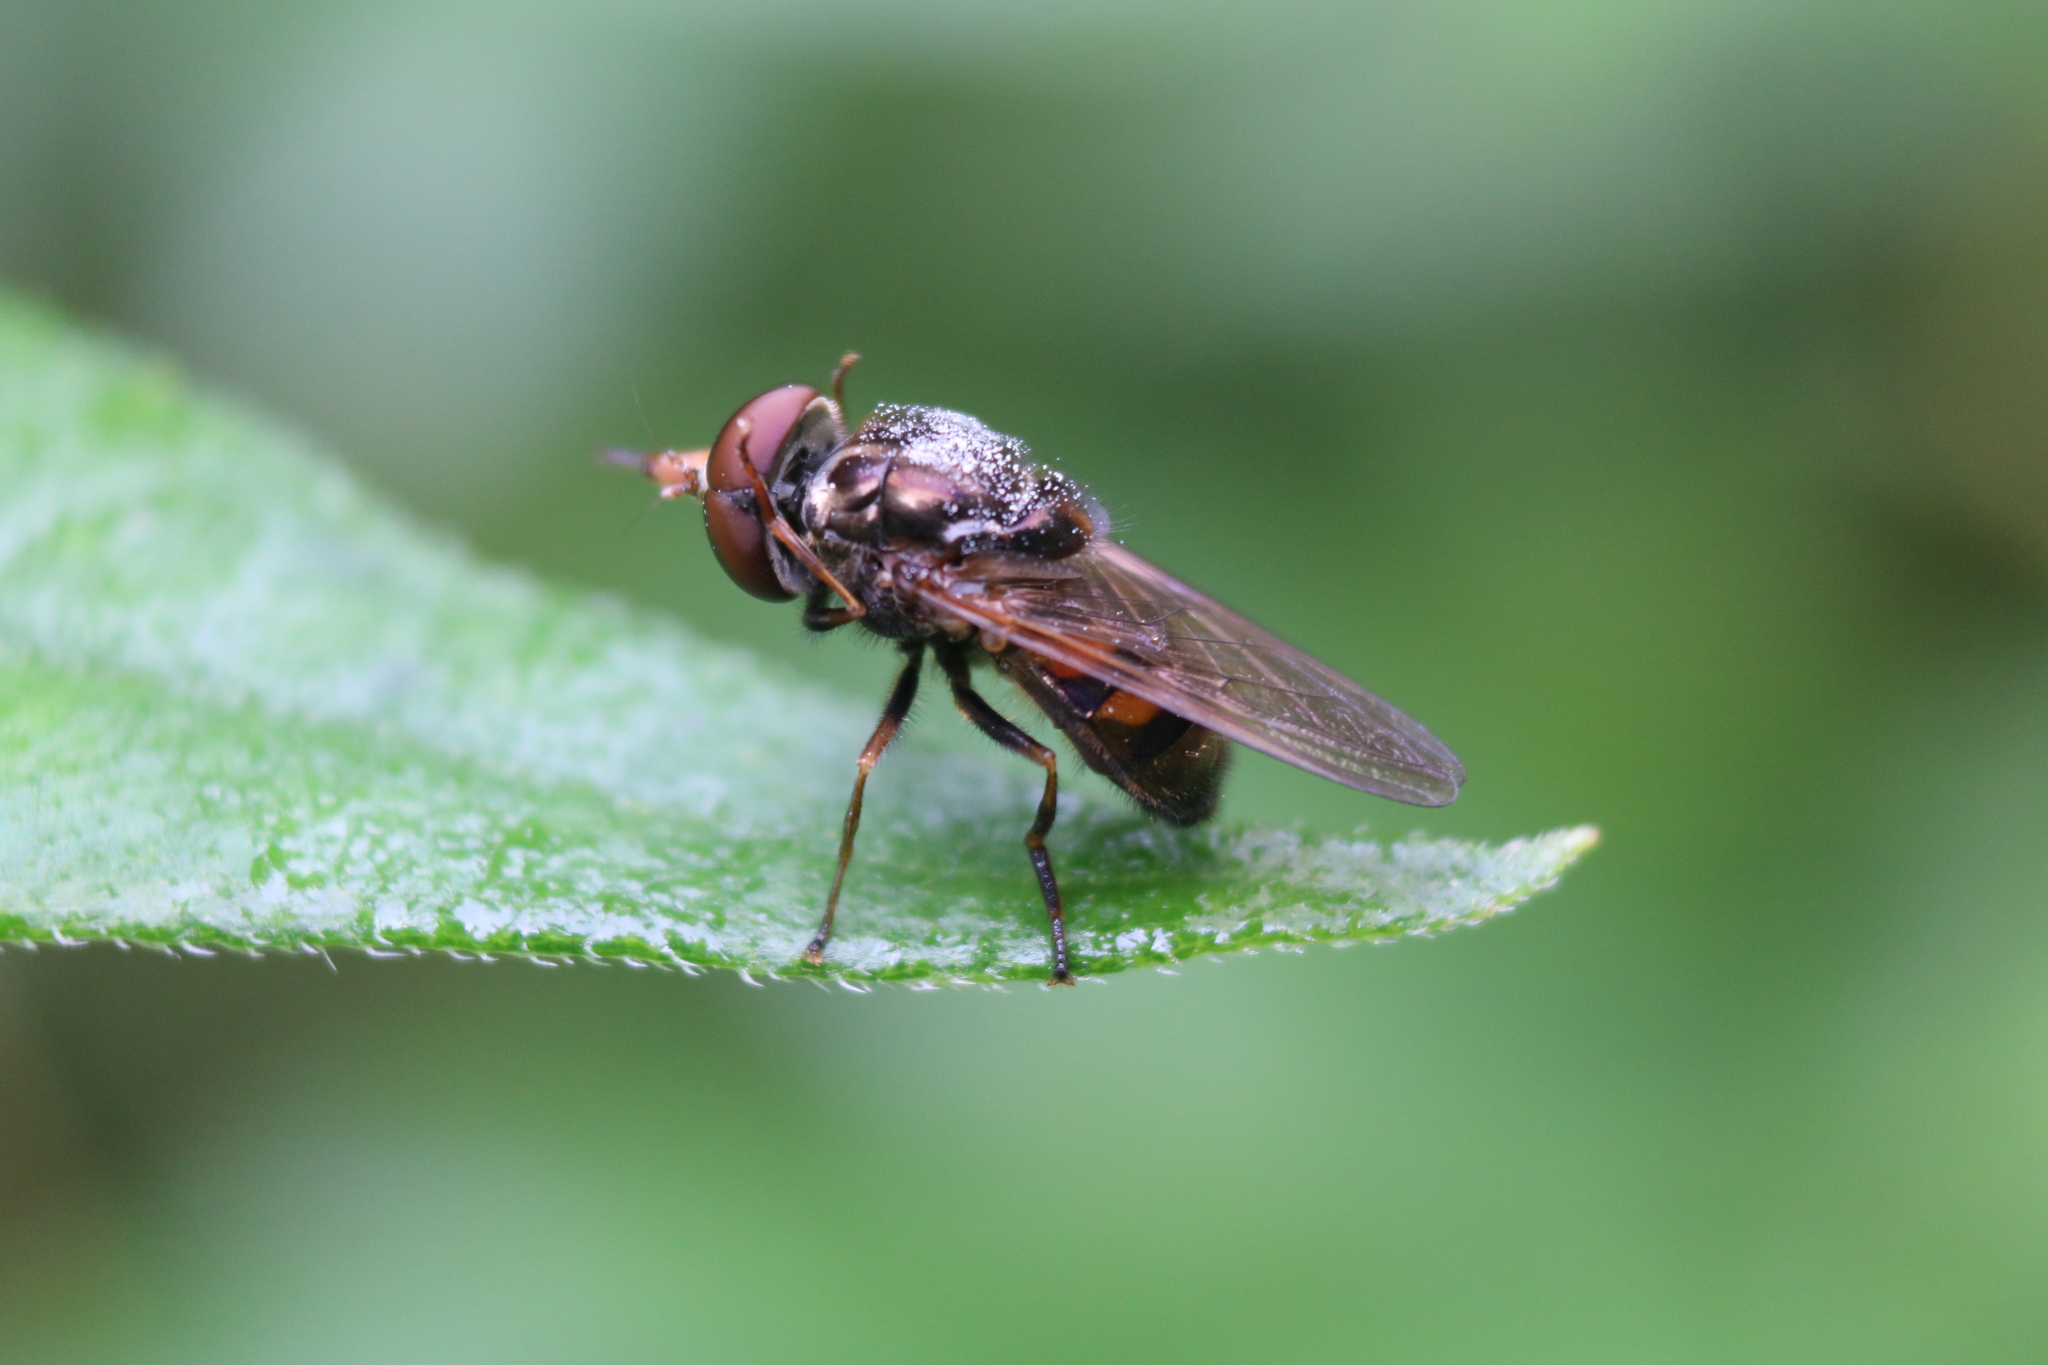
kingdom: Animalia
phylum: Arthropoda
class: Insecta
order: Diptera
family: Syrphidae
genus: Rhingia
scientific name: Rhingia nasica
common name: American snout fly
